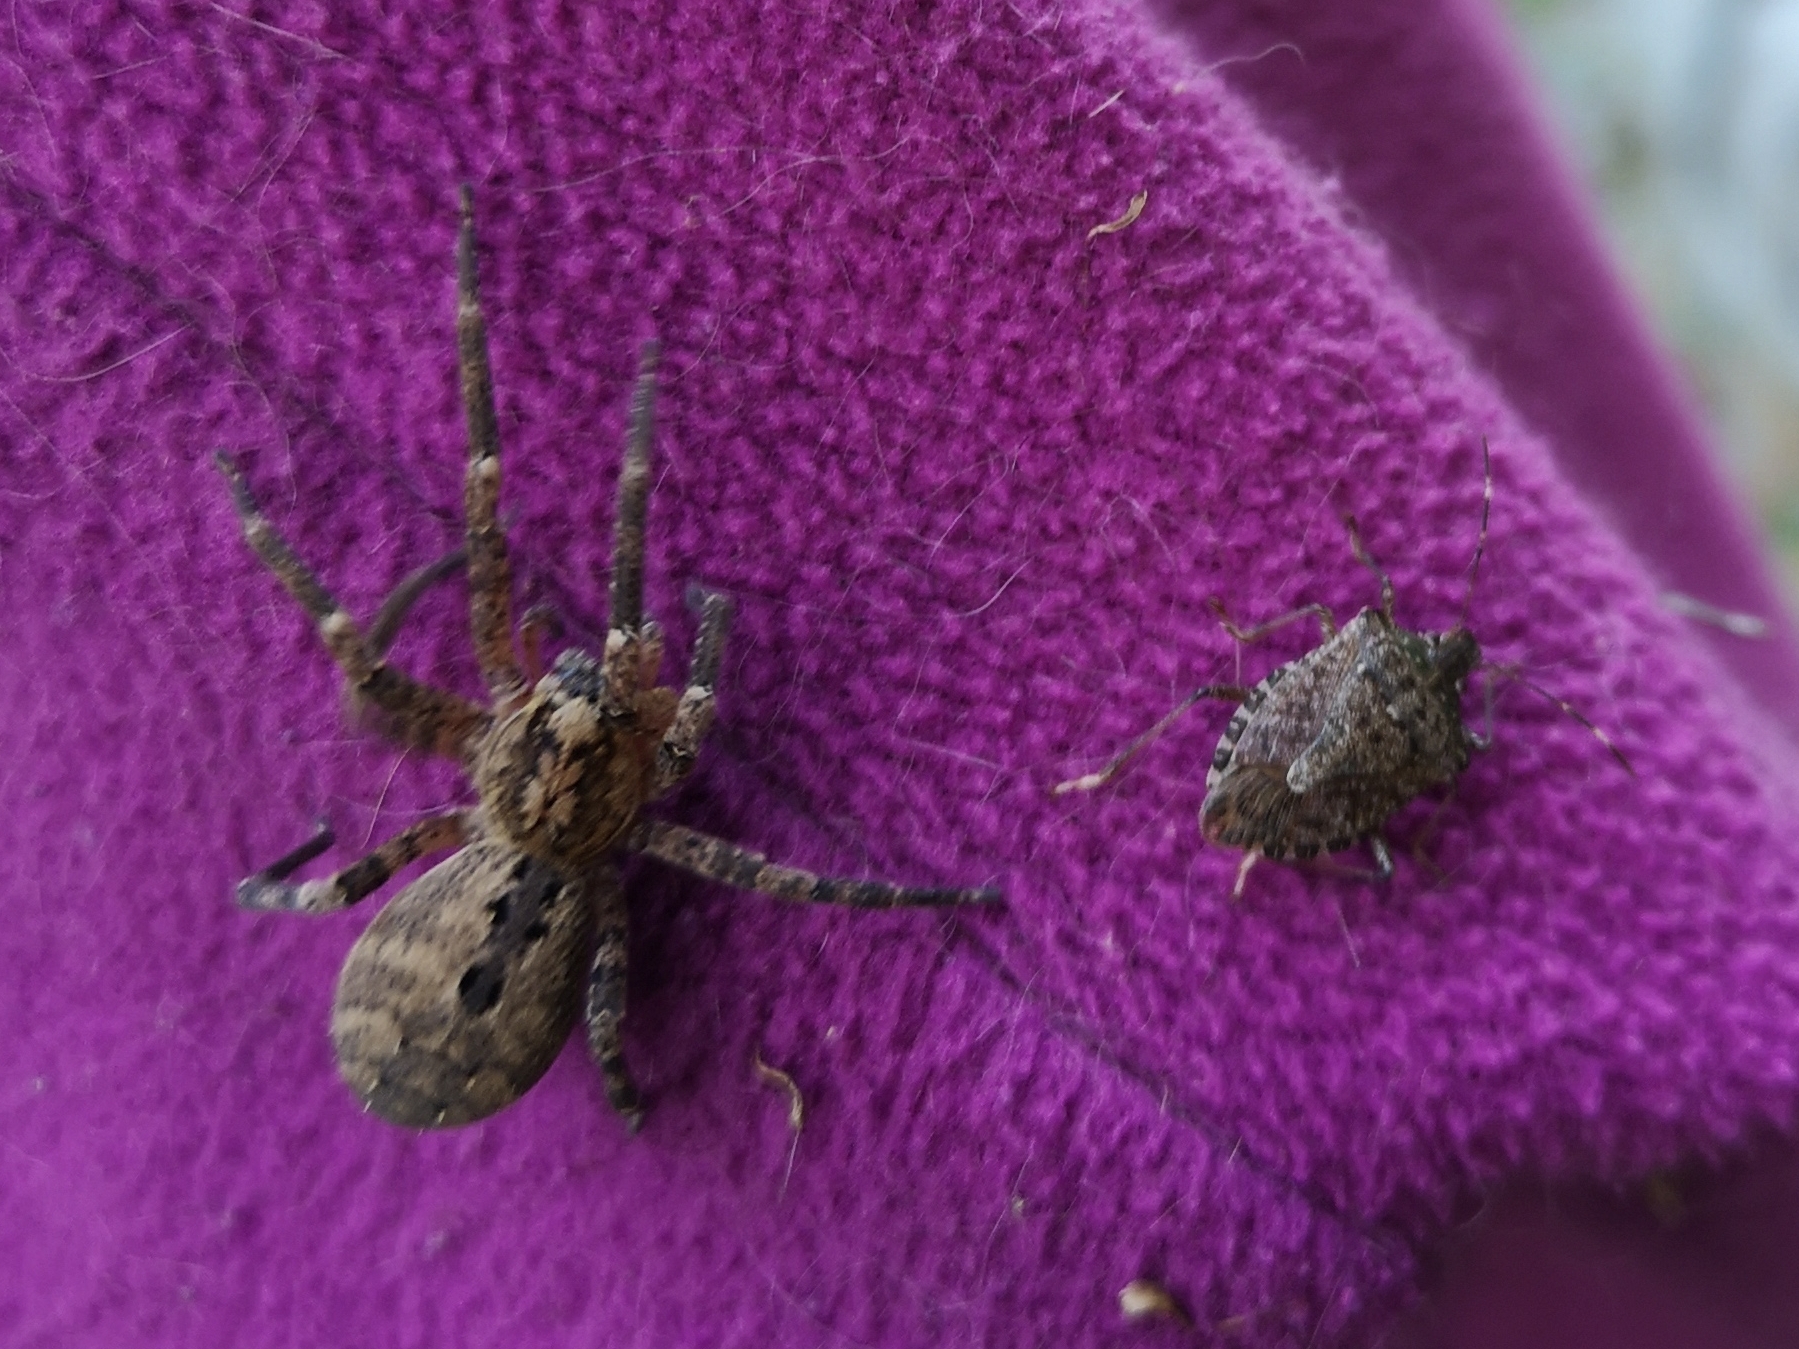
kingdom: Animalia
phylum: Arthropoda
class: Arachnida
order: Araneae
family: Zoropsidae
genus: Zoropsis
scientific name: Zoropsis spinimana
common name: Zoropsid spider
